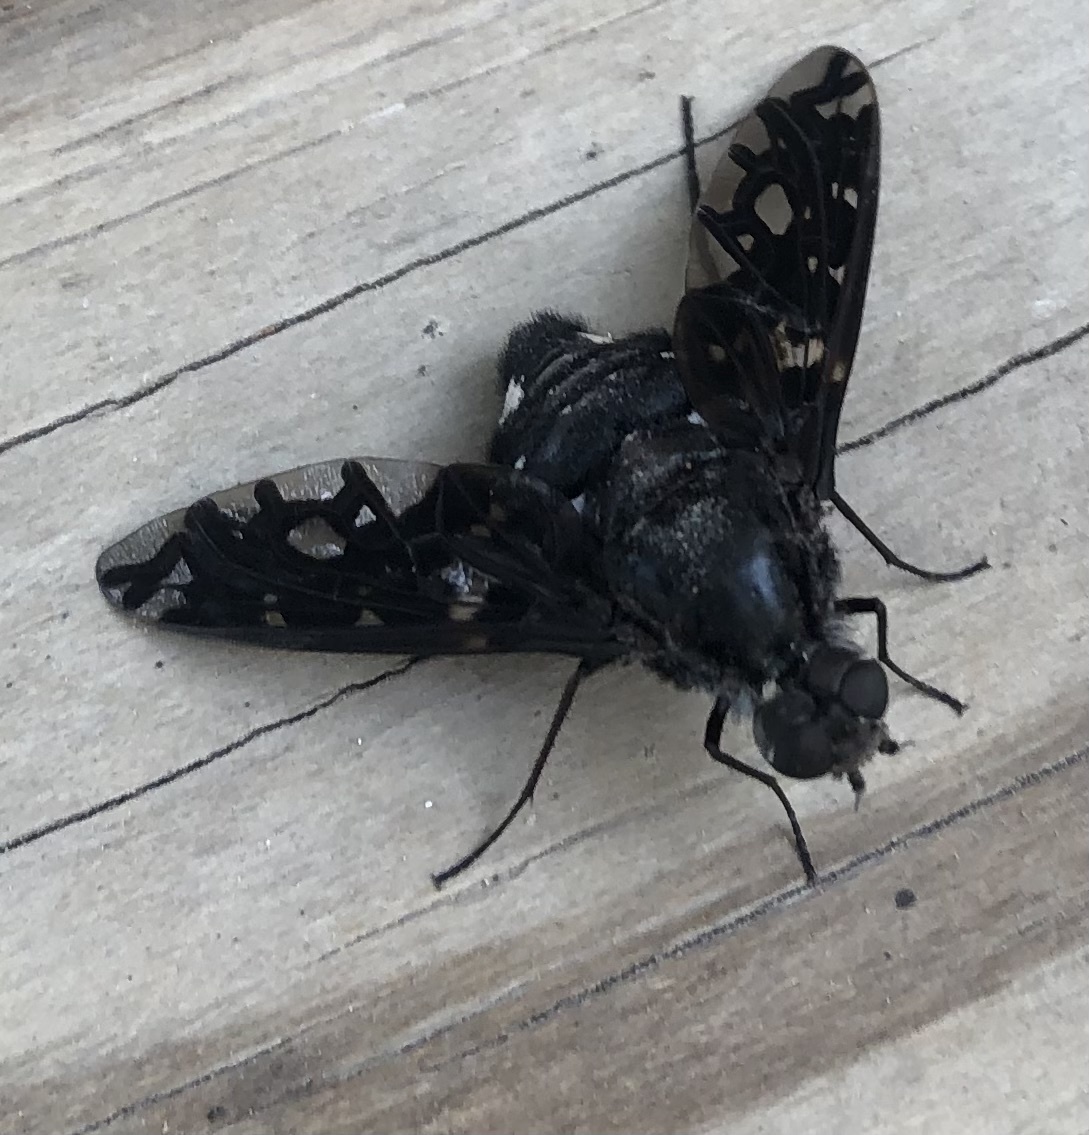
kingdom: Animalia
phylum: Arthropoda
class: Insecta
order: Diptera
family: Bombyliidae
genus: Xenox
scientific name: Xenox tigrinus
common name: Tiger bee fly
